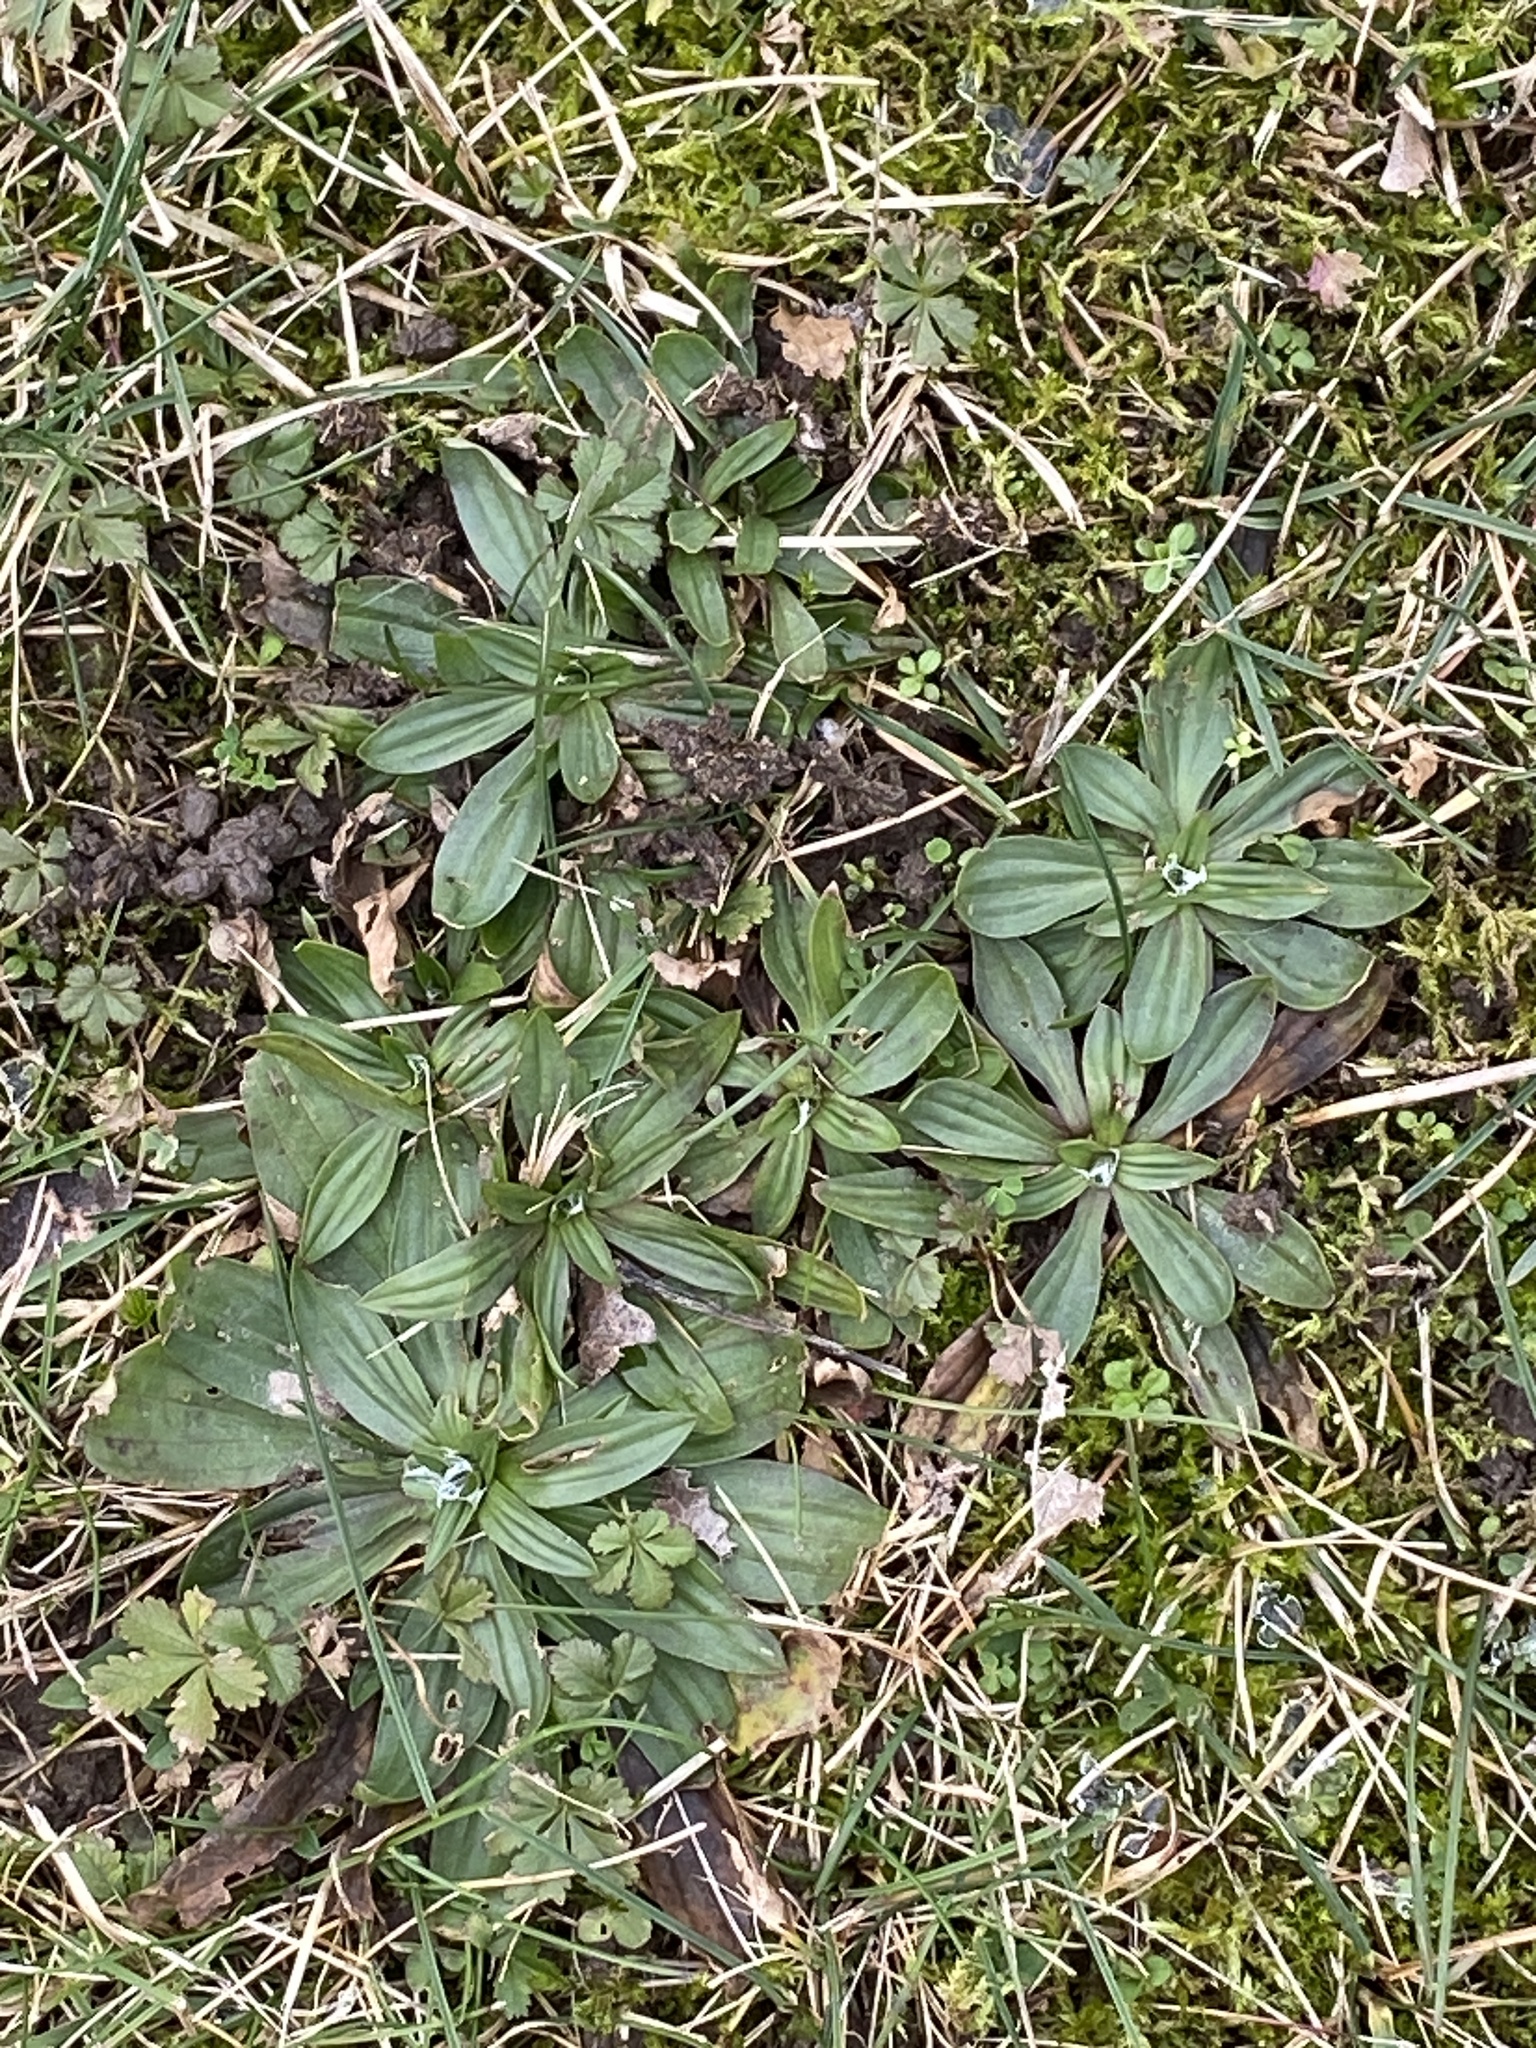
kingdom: Plantae
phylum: Tracheophyta
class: Magnoliopsida
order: Lamiales
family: Plantaginaceae
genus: Plantago
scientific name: Plantago lanceolata
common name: Ribwort plantain
